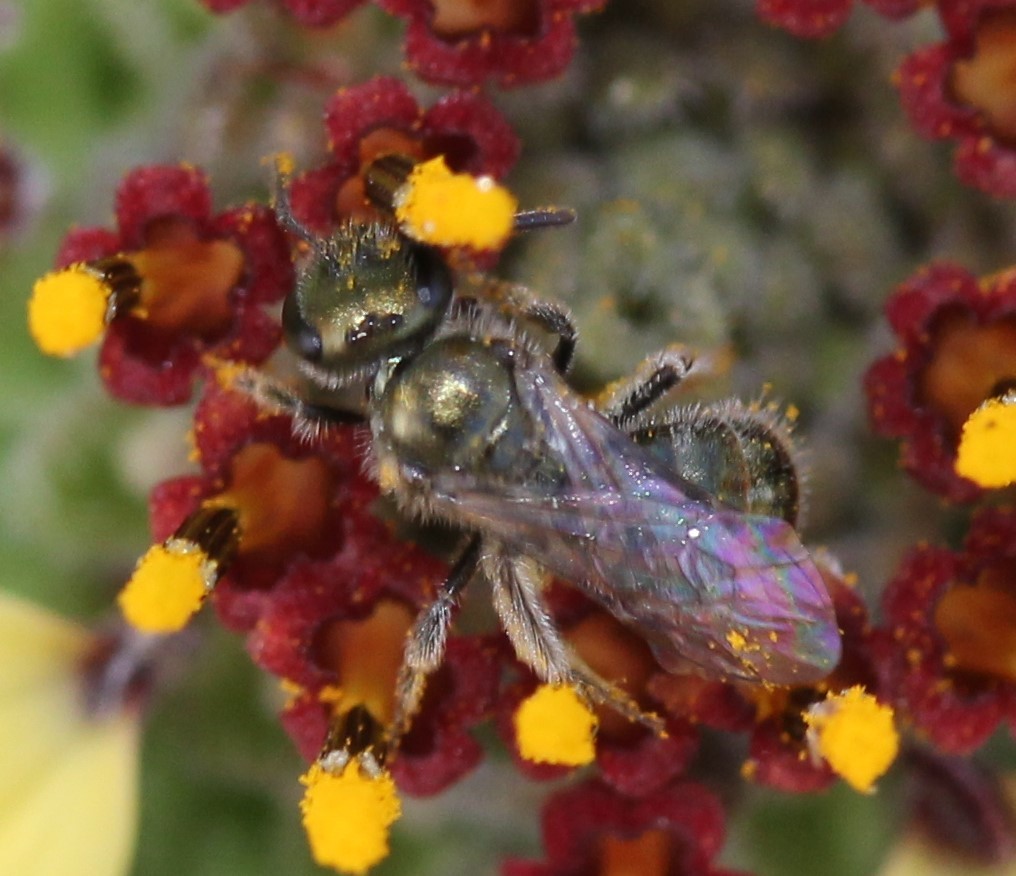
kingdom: Animalia
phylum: Arthropoda
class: Insecta
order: Hymenoptera
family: Halictidae
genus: Dialictus
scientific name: Dialictus
